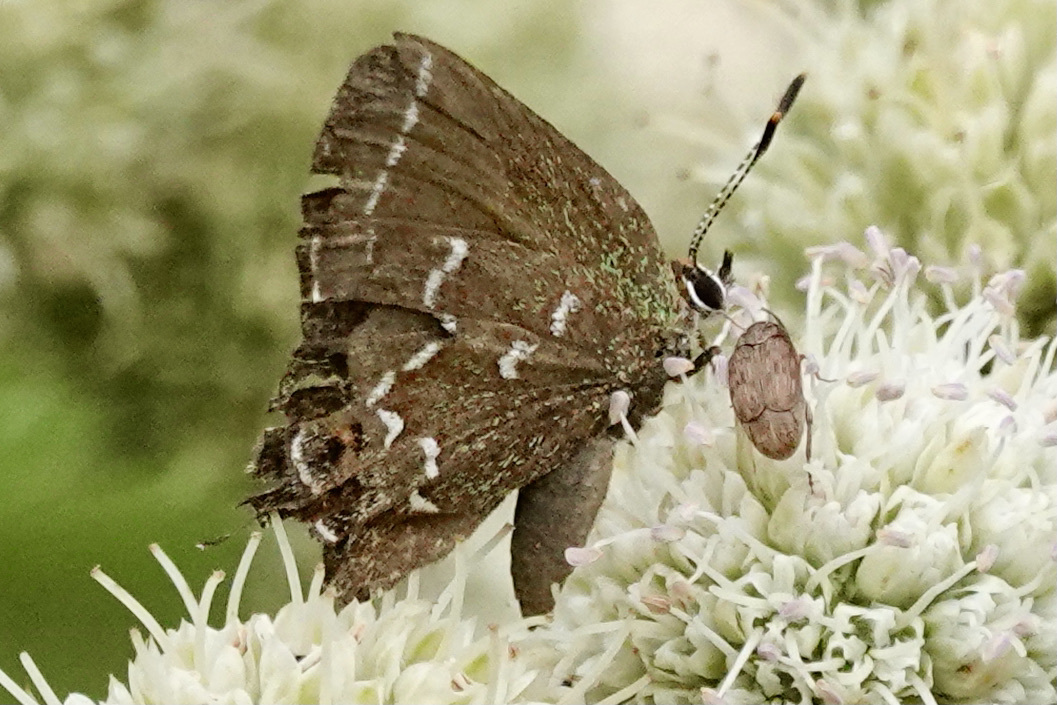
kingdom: Animalia
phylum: Arthropoda
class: Insecta
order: Lepidoptera
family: Lycaenidae
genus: Mitoura
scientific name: Mitoura gryneus
